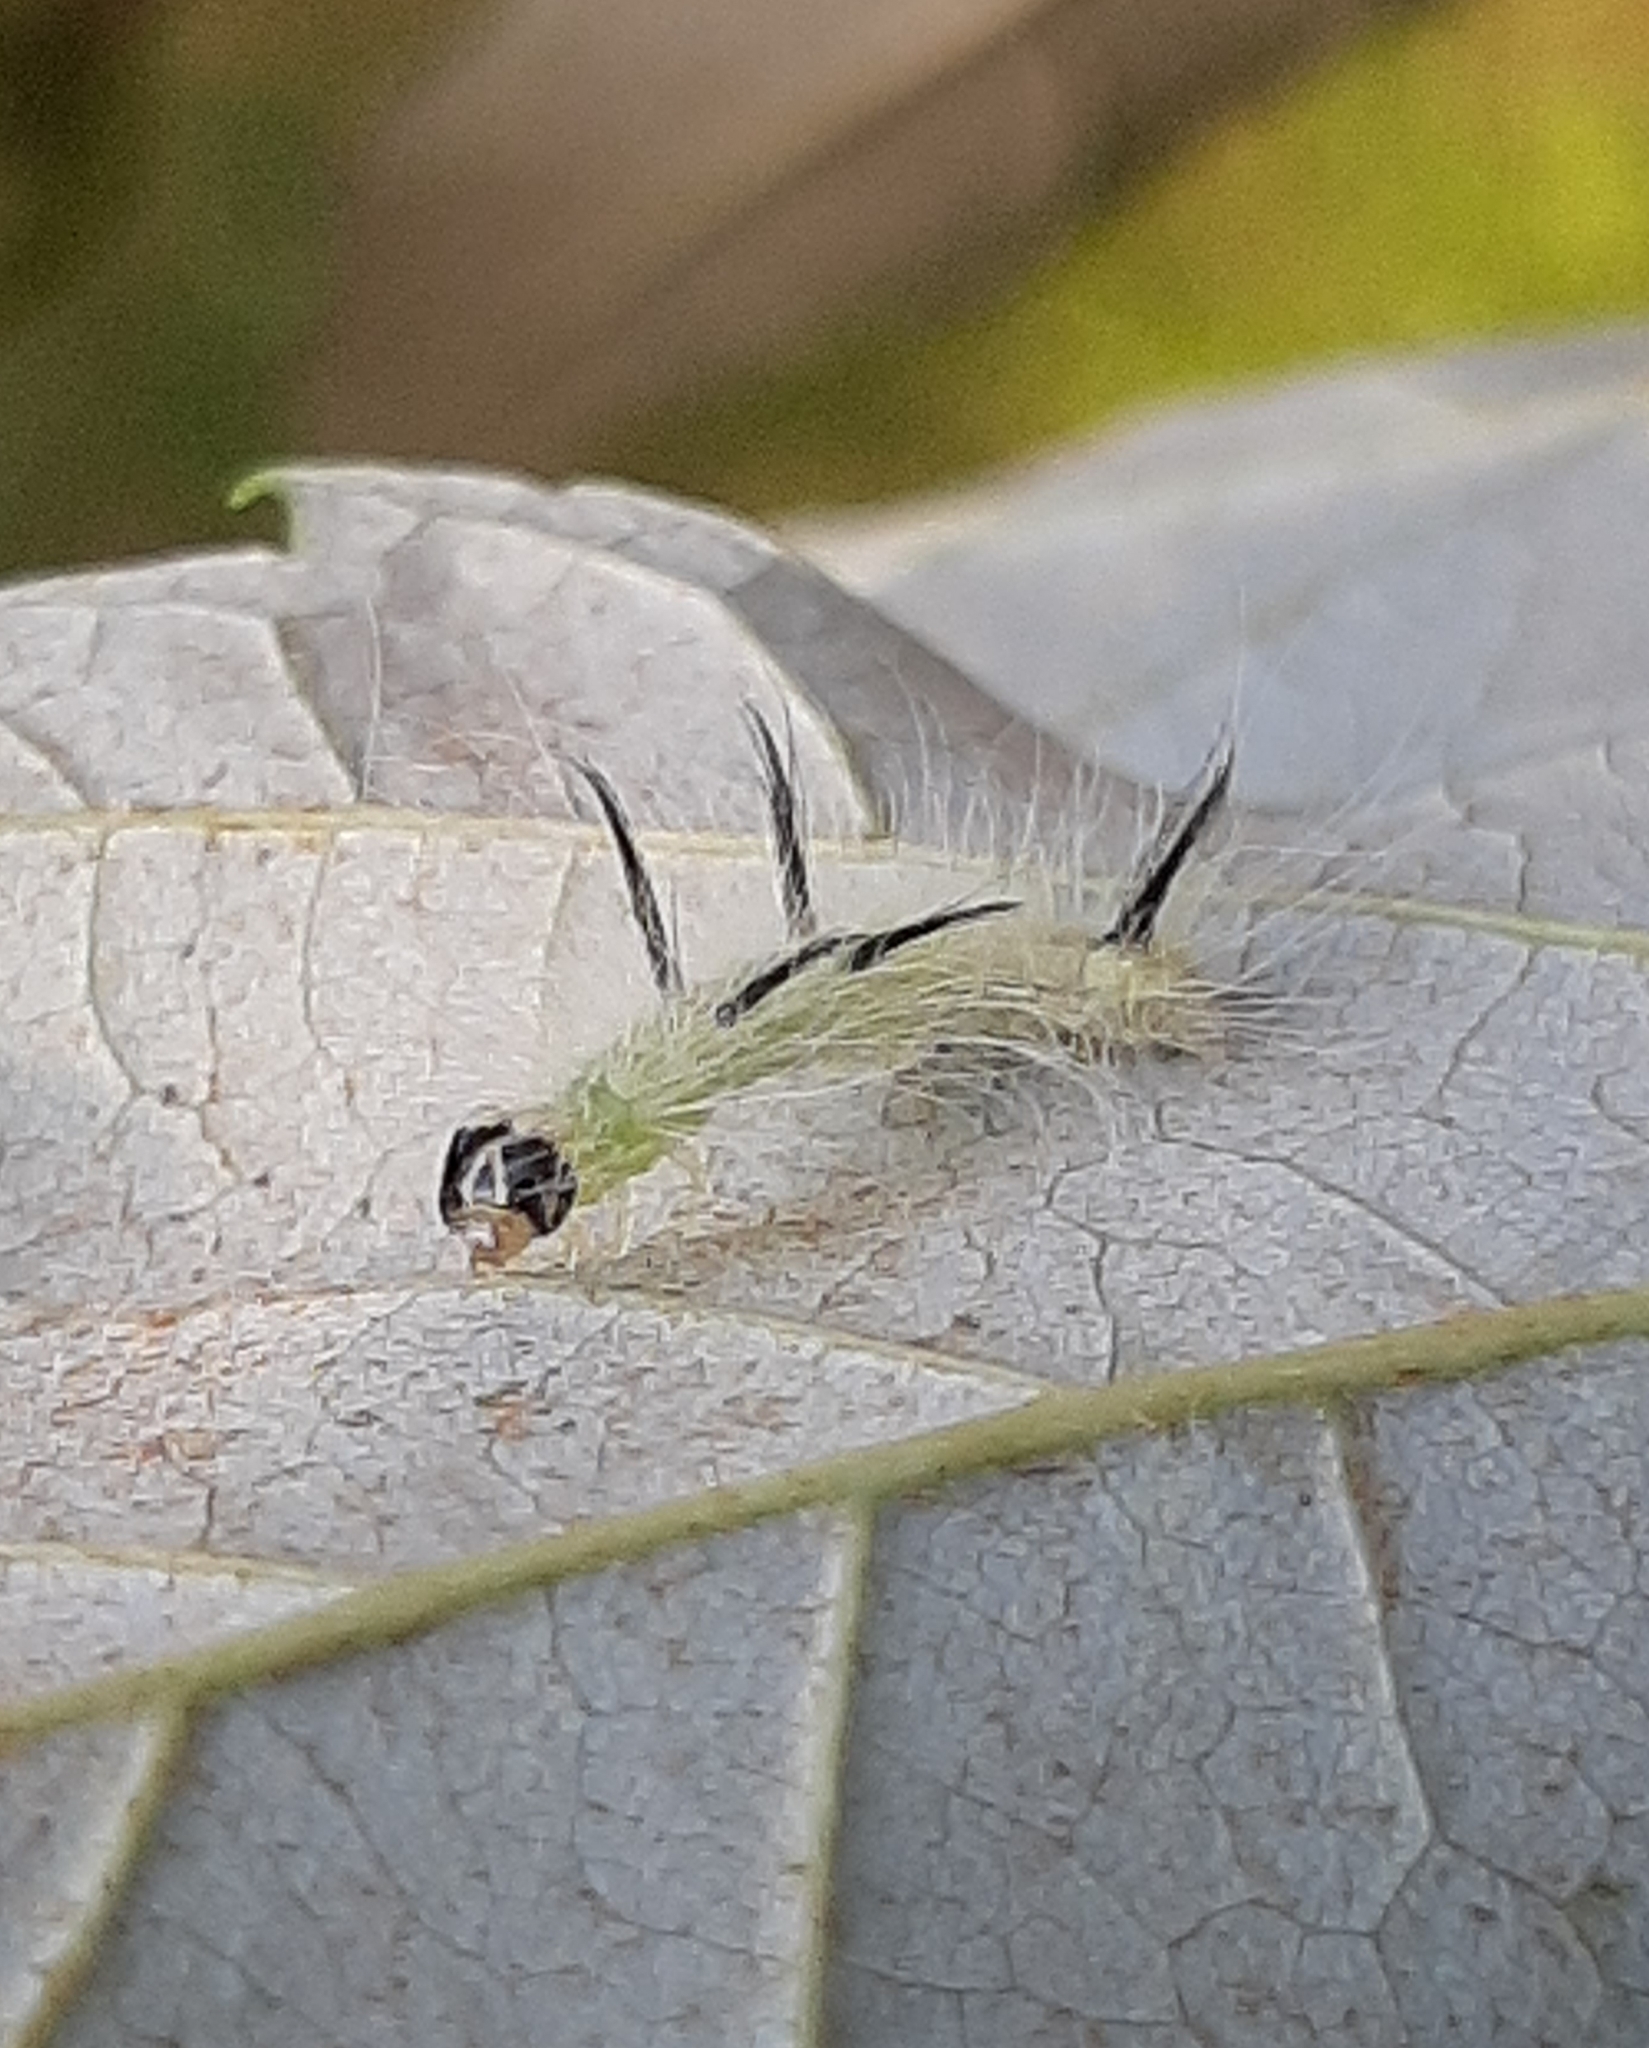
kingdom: Animalia
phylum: Arthropoda
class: Insecta
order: Lepidoptera
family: Noctuidae
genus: Acronicta
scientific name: Acronicta americana
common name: American dagger
